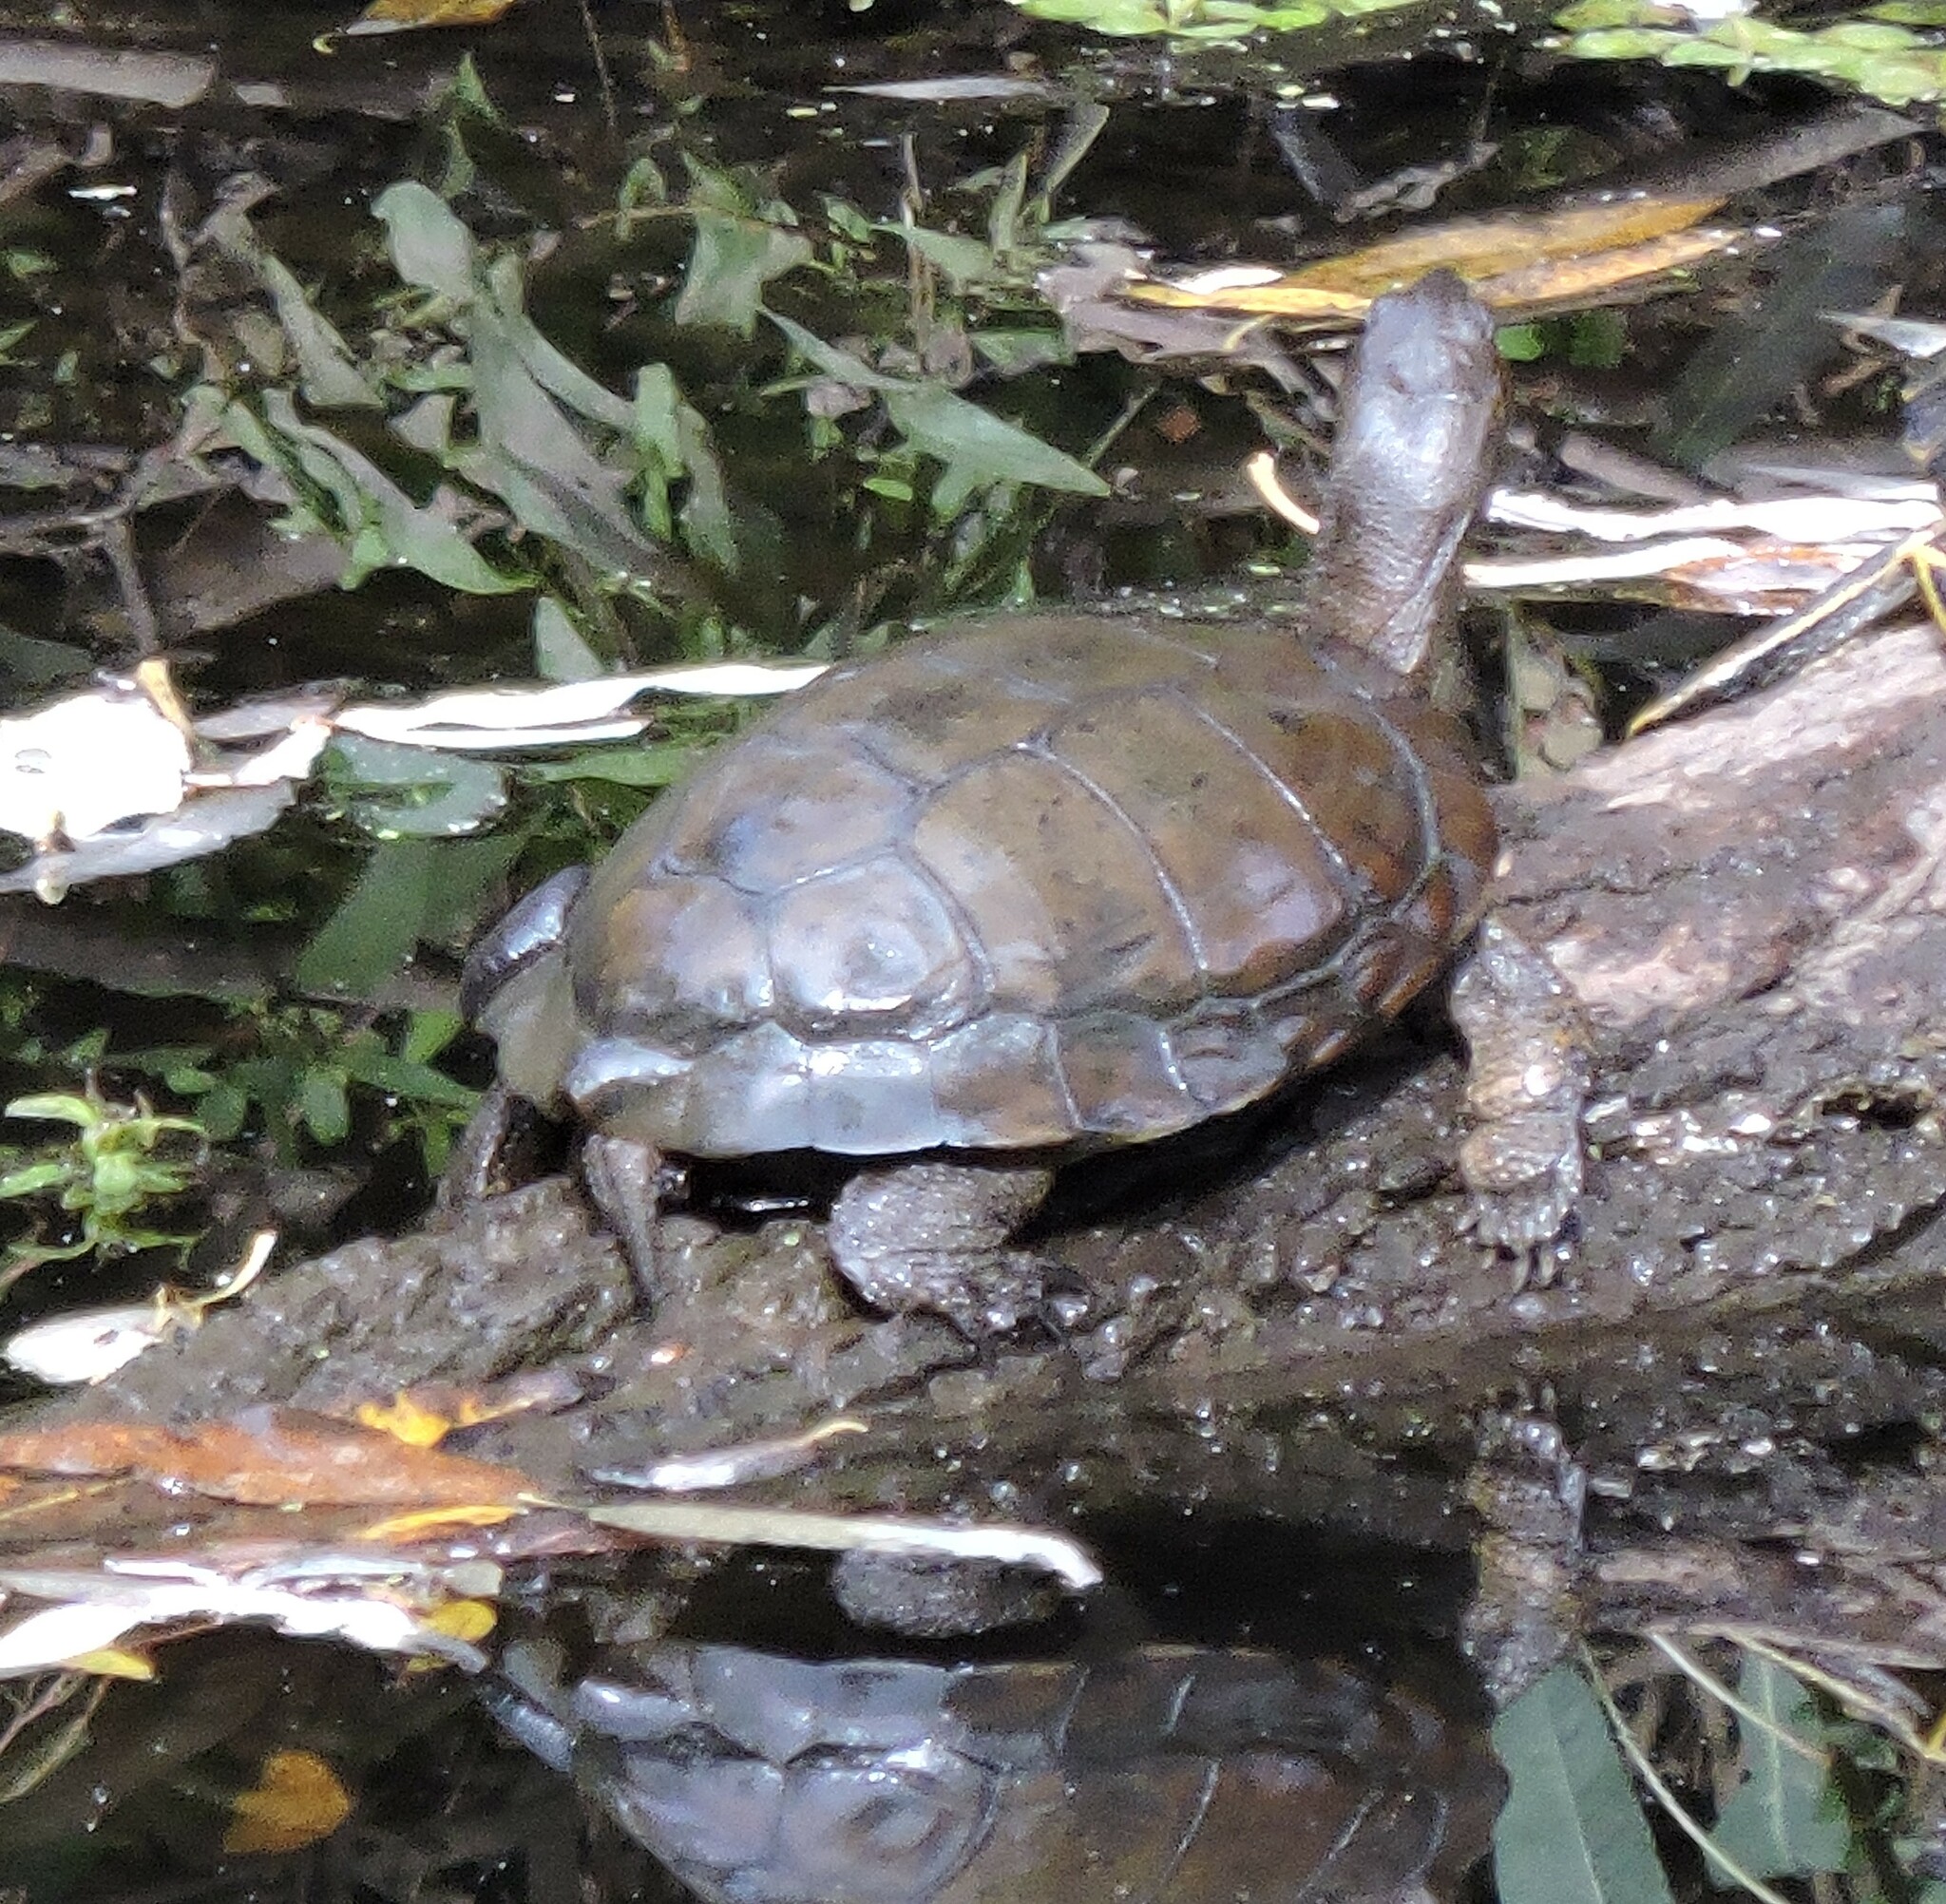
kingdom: Animalia
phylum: Chordata
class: Testudines
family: Emydidae
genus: Actinemys
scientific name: Actinemys marmorata
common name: Western pond turtle
